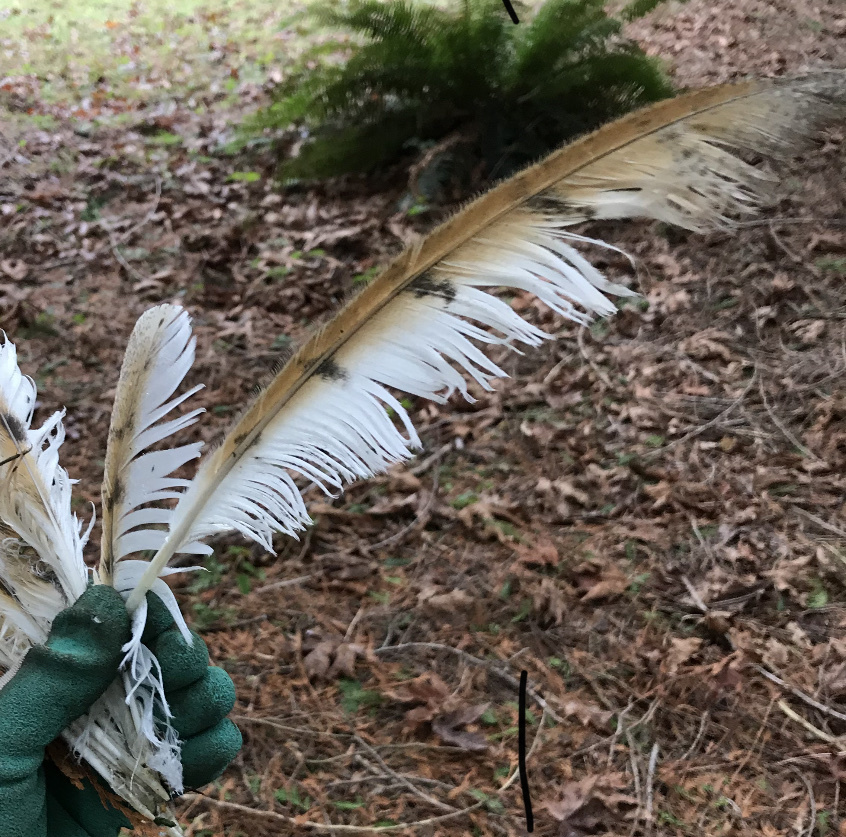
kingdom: Animalia
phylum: Chordata
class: Aves
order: Strigiformes
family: Tytonidae
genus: Tyto
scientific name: Tyto alba
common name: Barn owl
